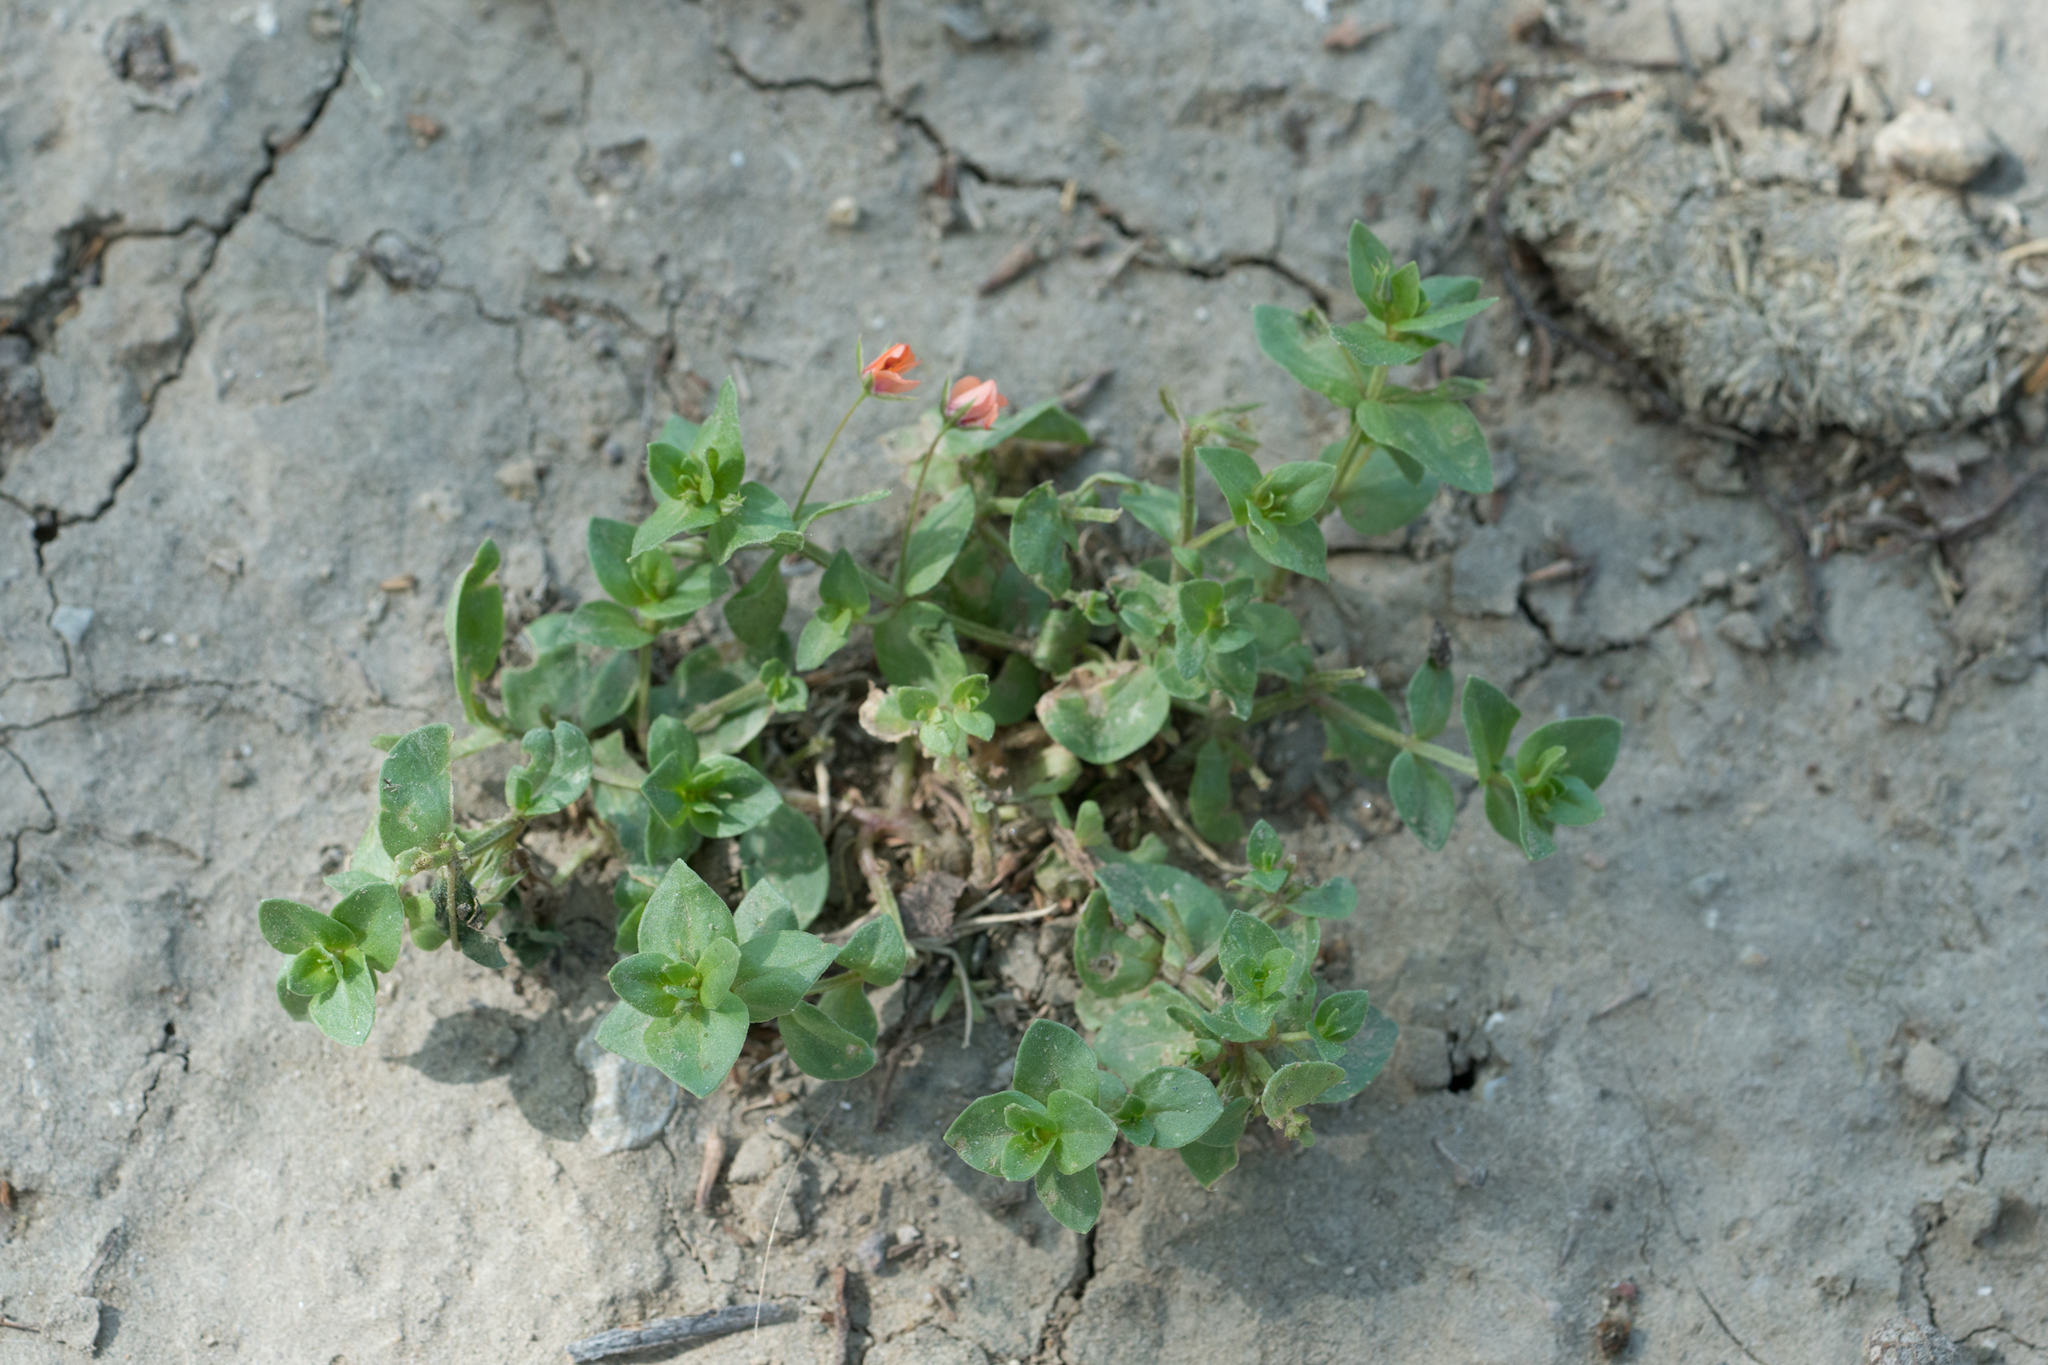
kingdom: Plantae
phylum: Tracheophyta
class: Magnoliopsida
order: Ericales
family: Primulaceae
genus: Lysimachia
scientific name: Lysimachia arvensis
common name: Scarlet pimpernel
